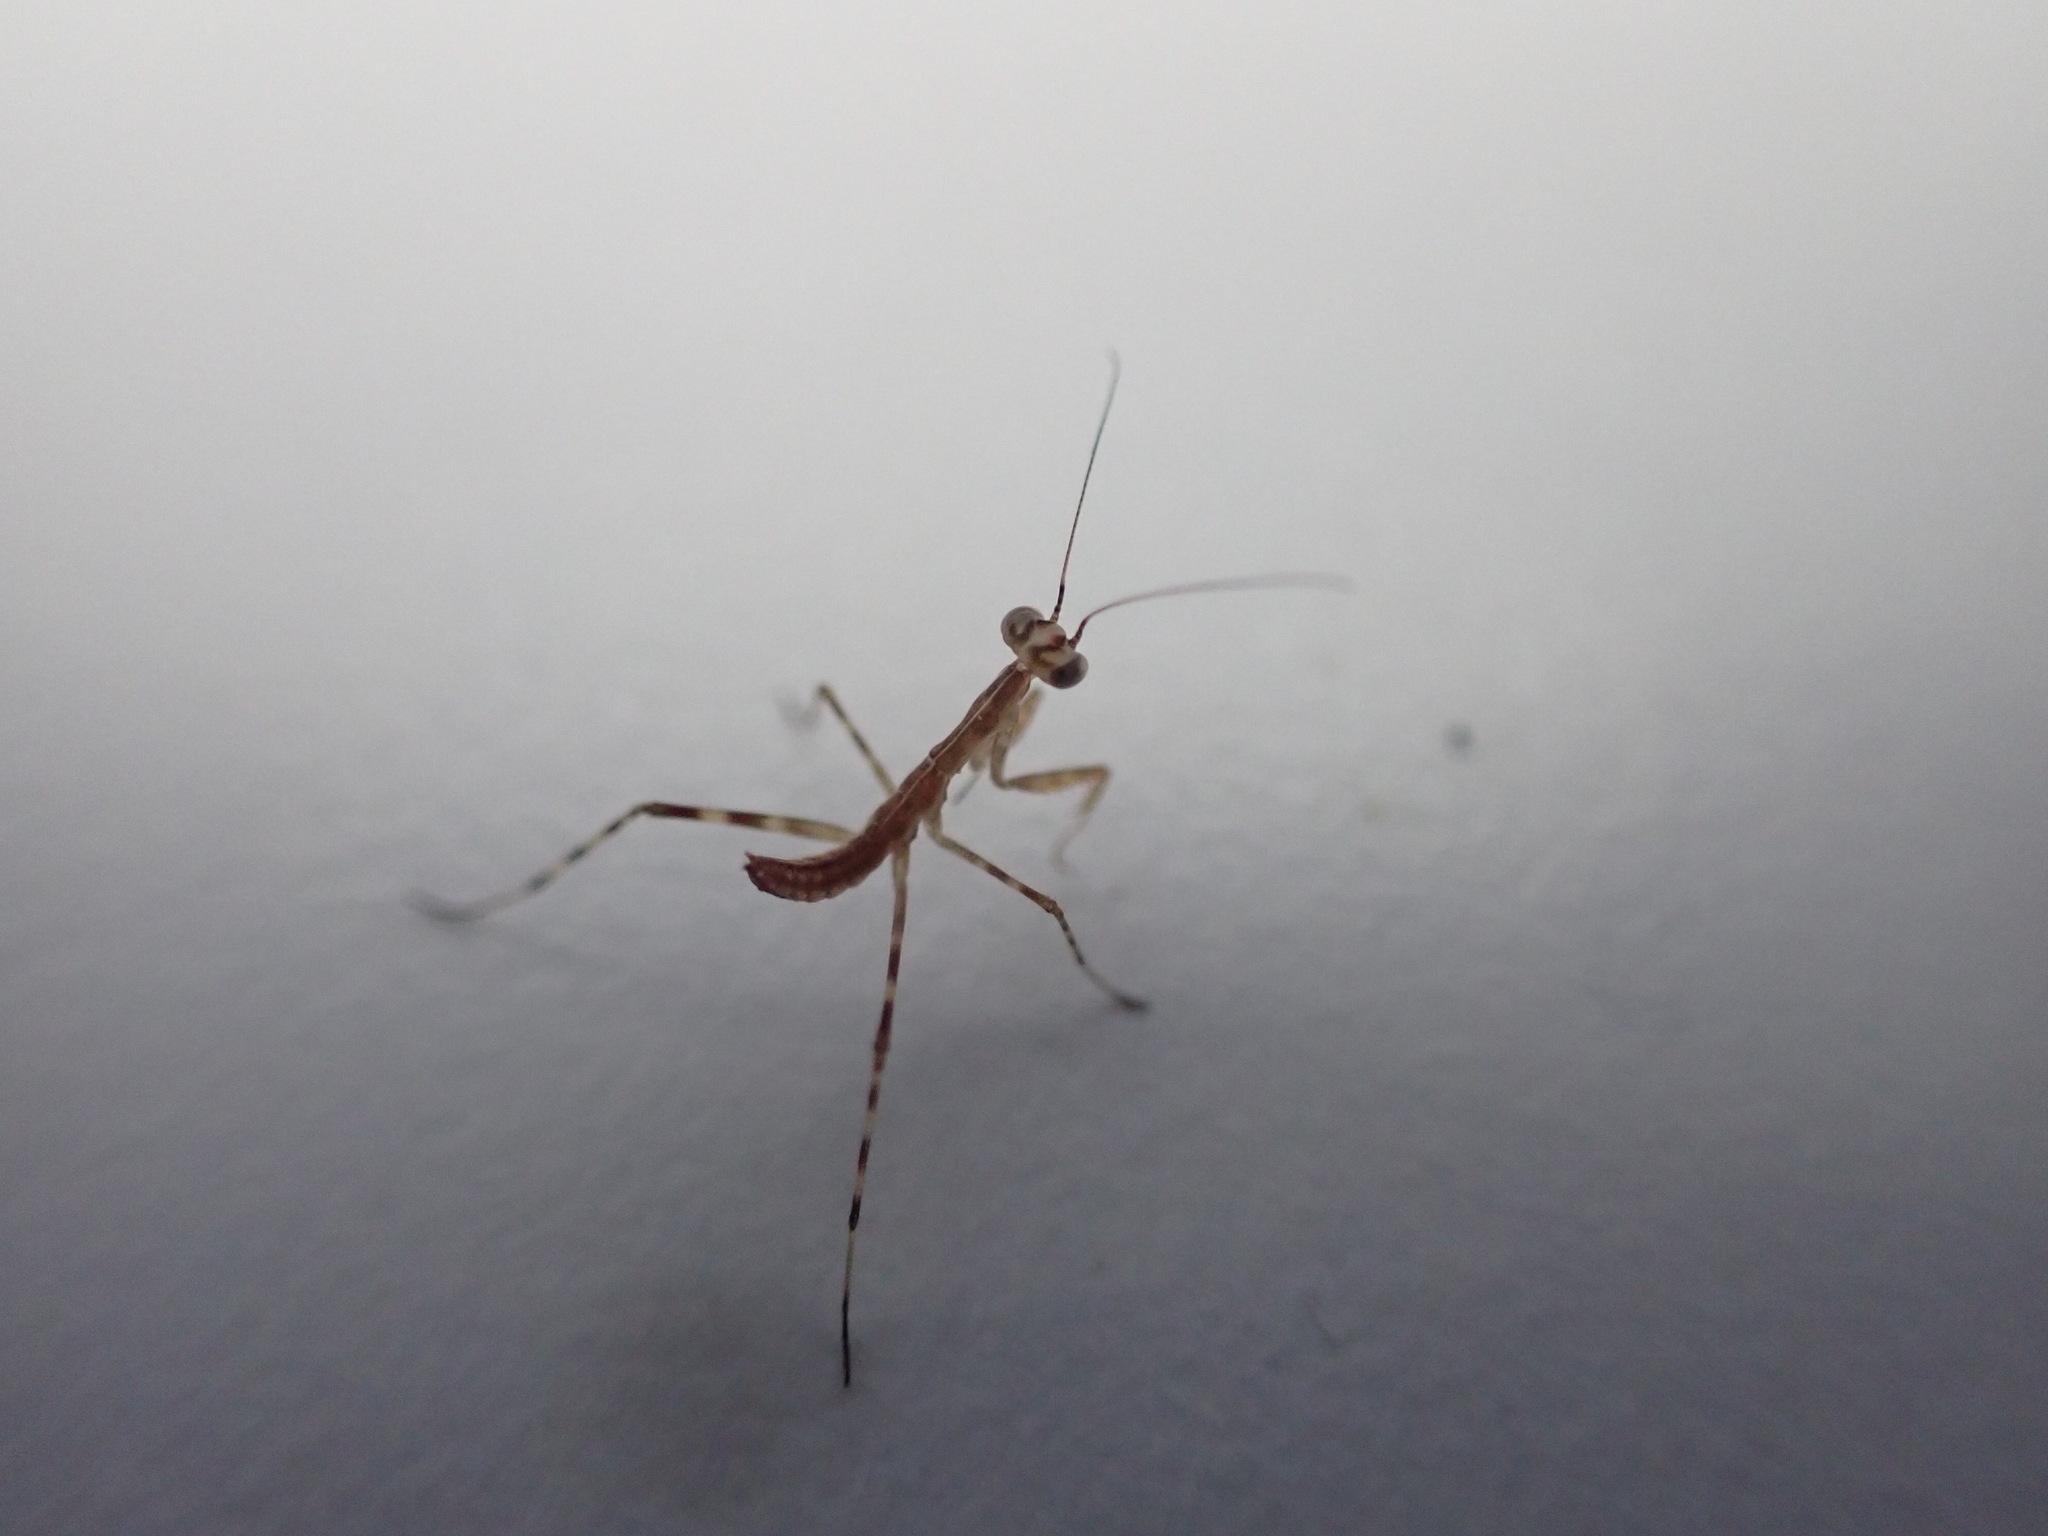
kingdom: Animalia
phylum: Arthropoda
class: Insecta
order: Mantodea
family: Miomantidae
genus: Miomantis
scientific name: Miomantis caffra
